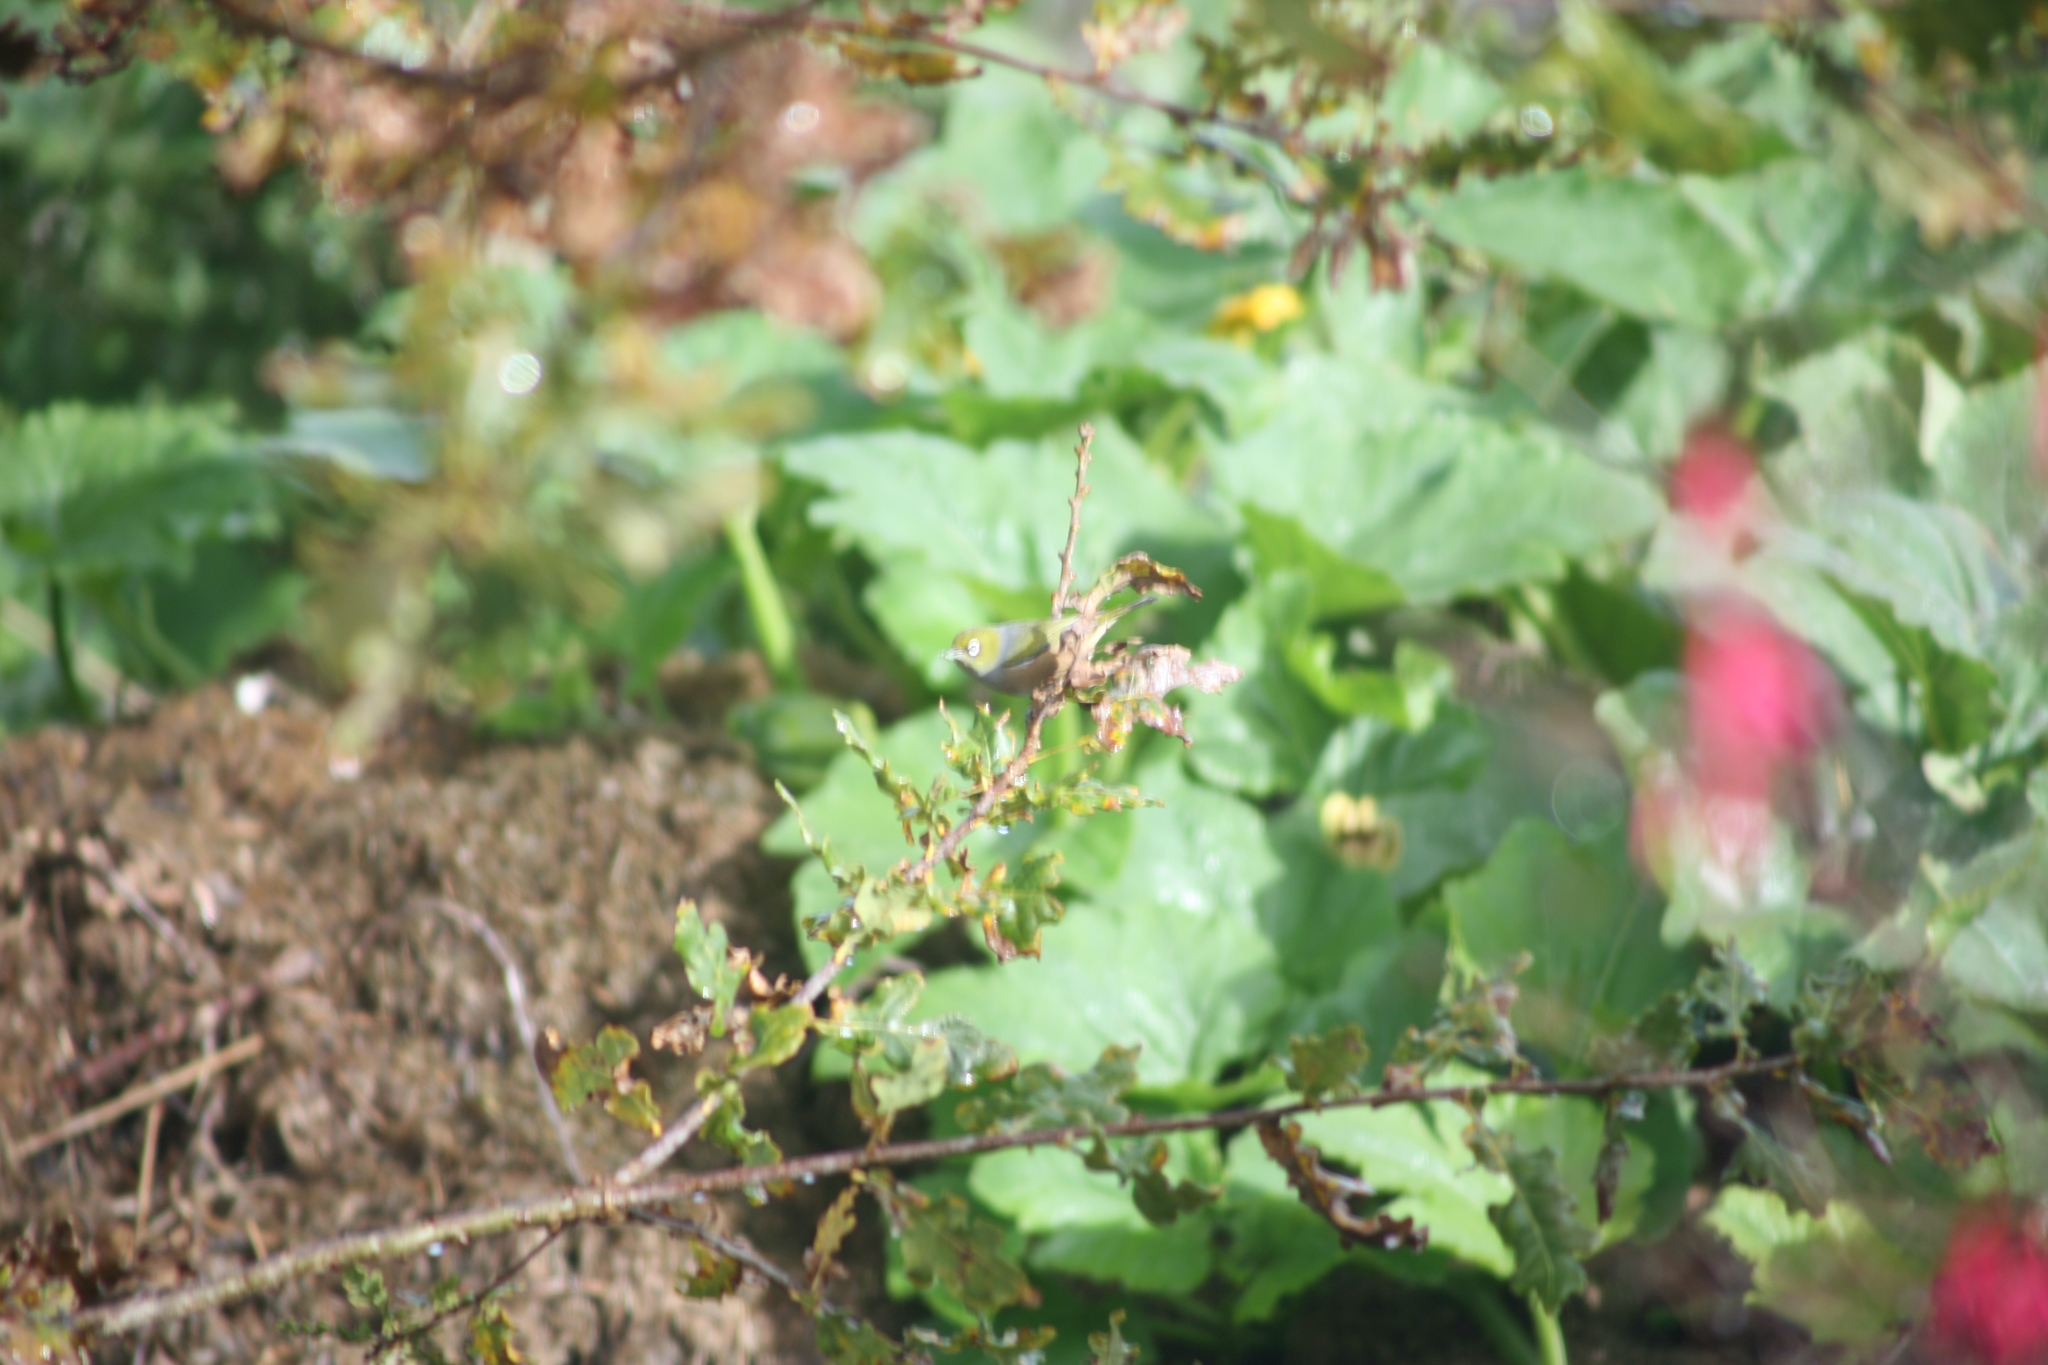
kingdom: Animalia
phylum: Chordata
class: Aves
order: Passeriformes
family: Zosteropidae
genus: Zosterops
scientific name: Zosterops lateralis
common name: Silvereye
